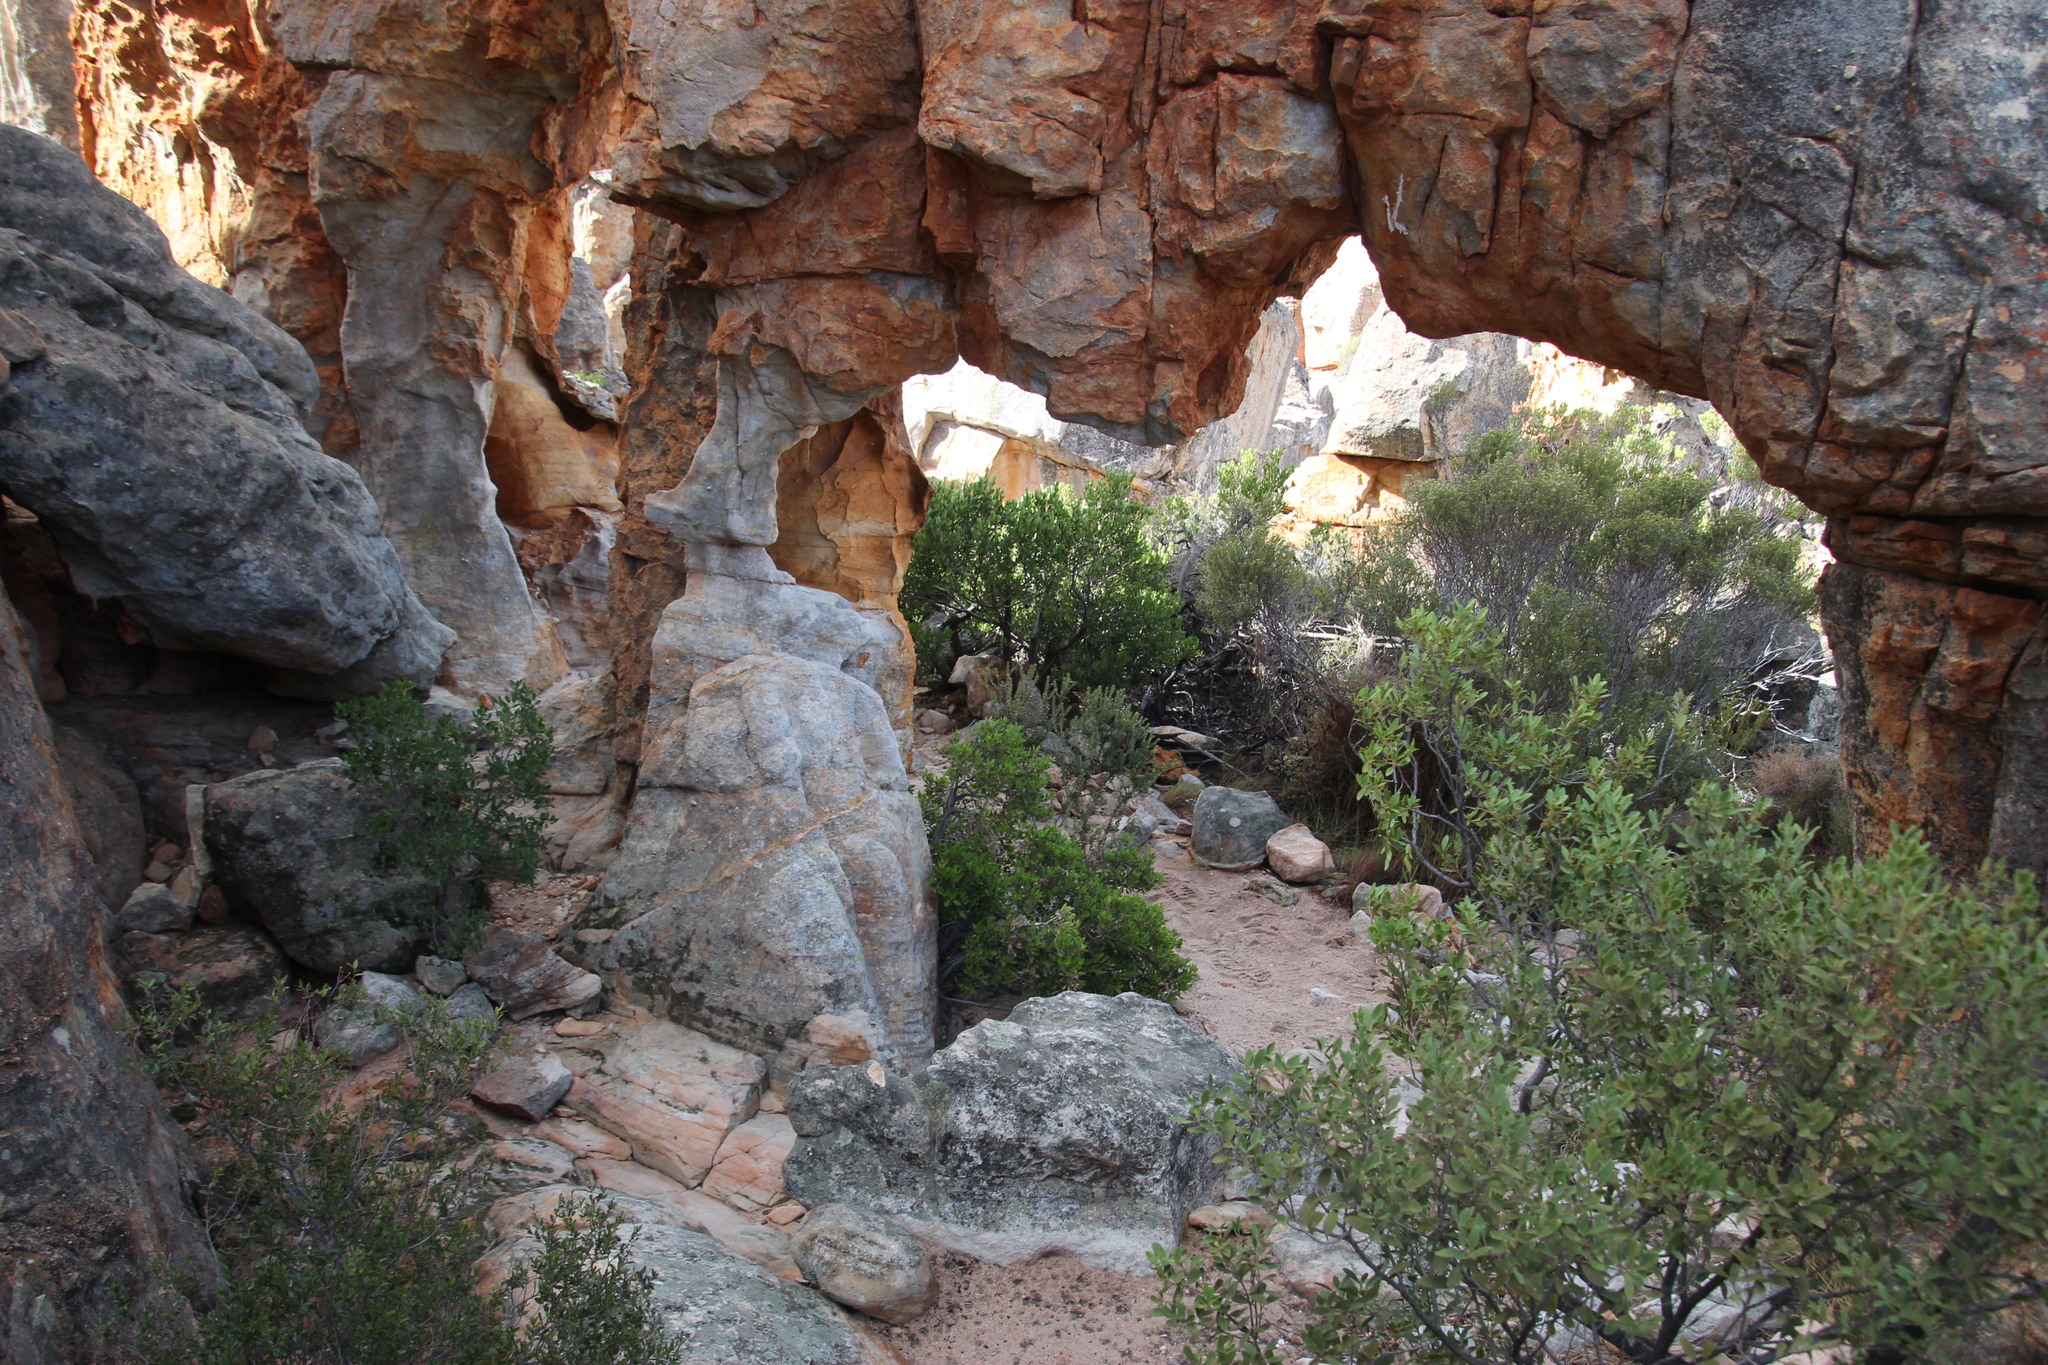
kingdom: Plantae
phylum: Tracheophyta
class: Magnoliopsida
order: Celastrales
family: Celastraceae
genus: Gymnosporia
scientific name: Gymnosporia laurina
